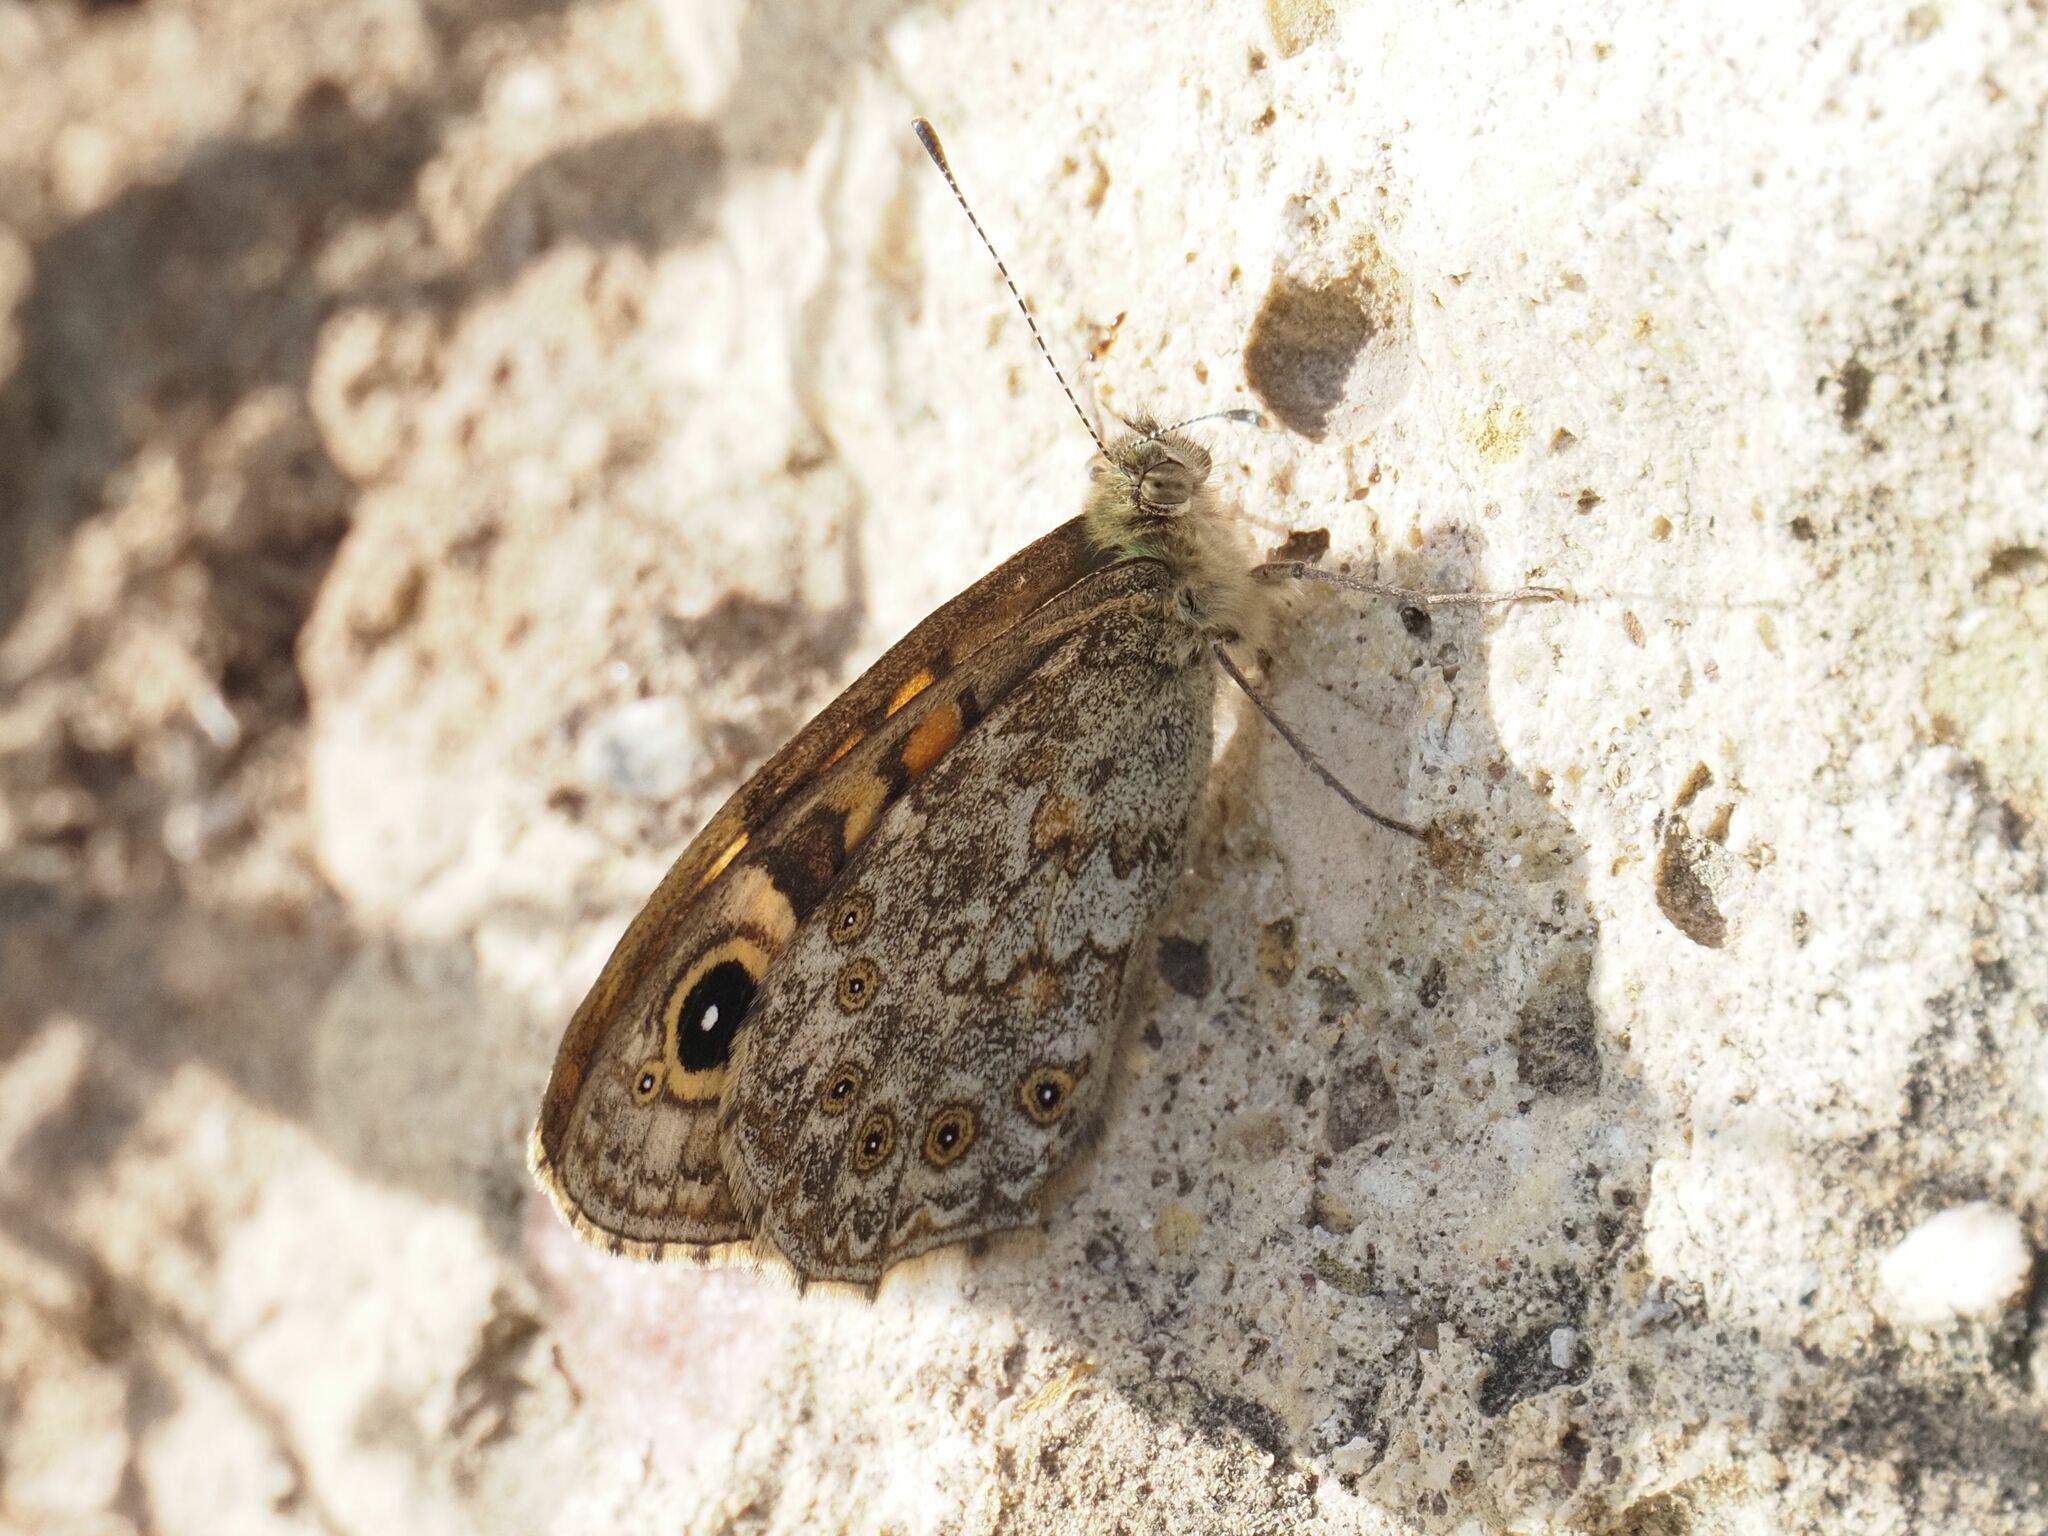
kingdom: Animalia
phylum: Arthropoda
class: Insecta
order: Lepidoptera
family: Nymphalidae
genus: Pararge
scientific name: Pararge Lasiommata megera
